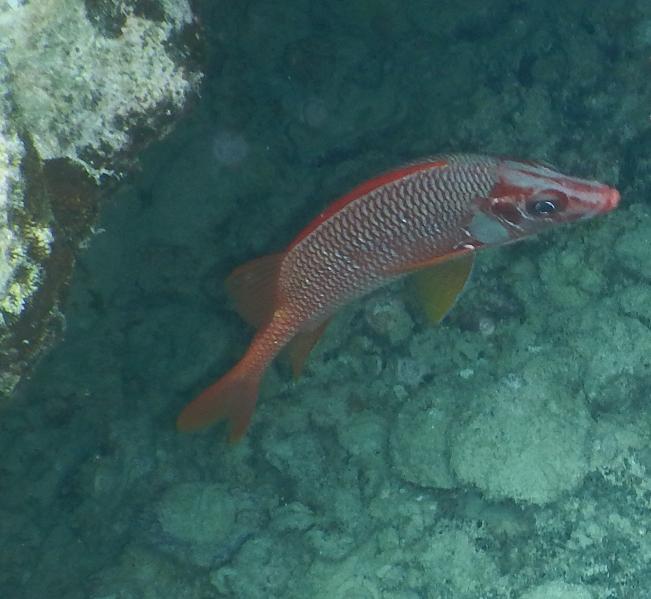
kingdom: Animalia
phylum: Chordata
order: Beryciformes
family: Holocentridae
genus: Sargocentron
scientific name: Sargocentron spiniferum
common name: Giant squirrelfish
